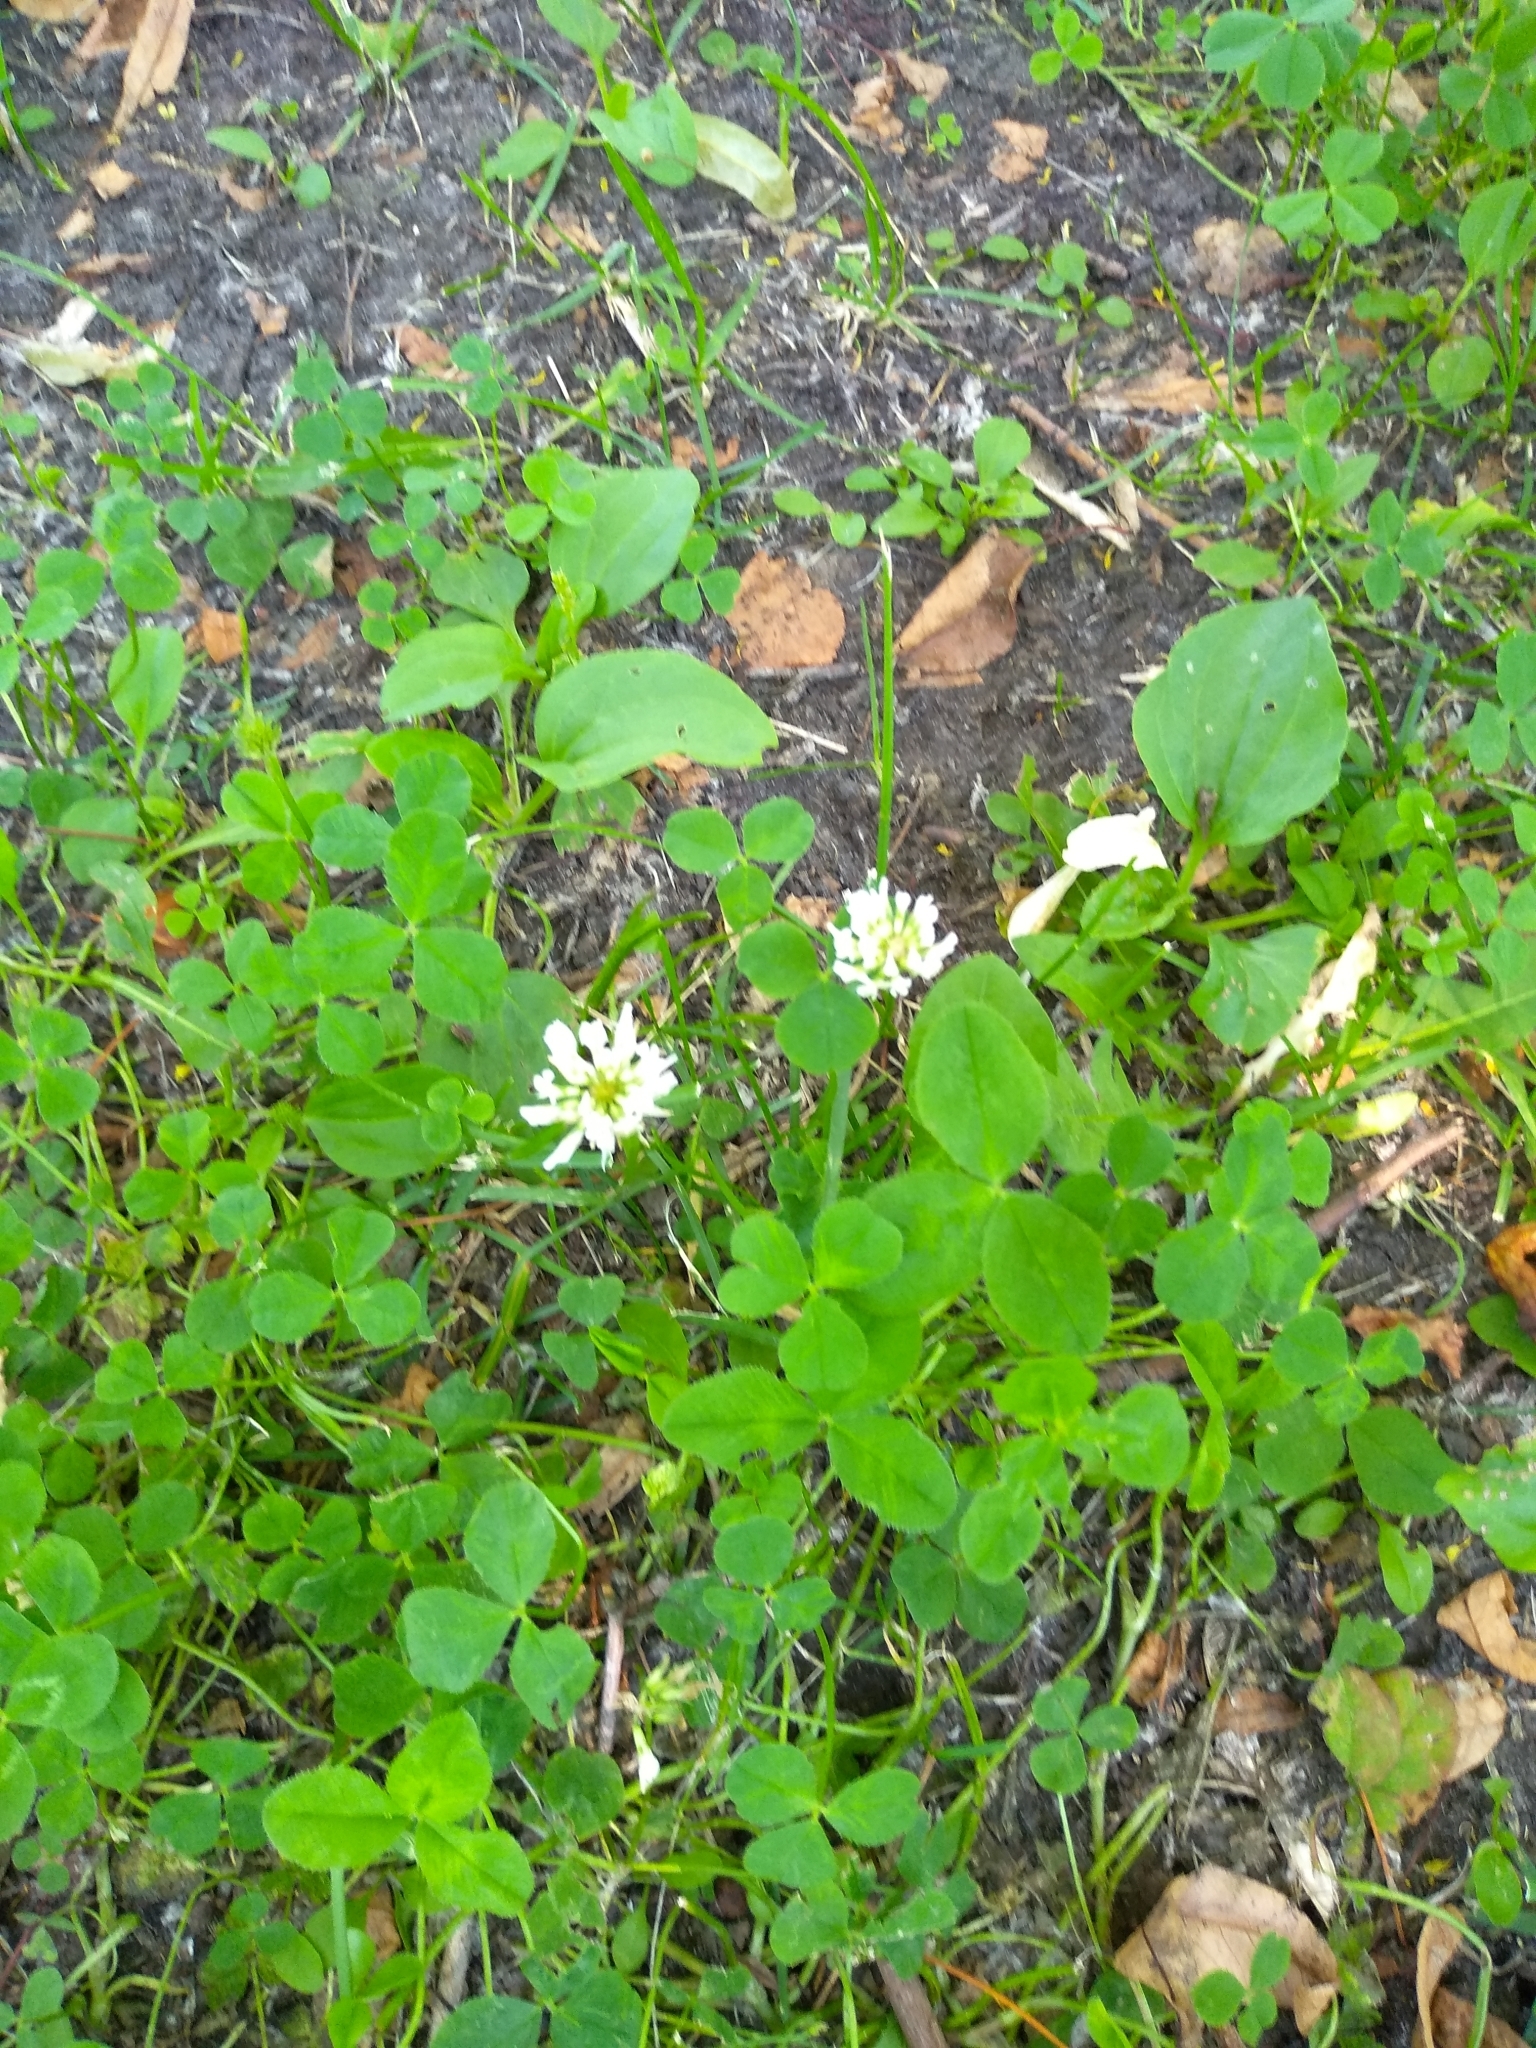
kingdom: Plantae
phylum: Tracheophyta
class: Magnoliopsida
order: Fabales
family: Fabaceae
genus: Trifolium
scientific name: Trifolium repens
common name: White clover
